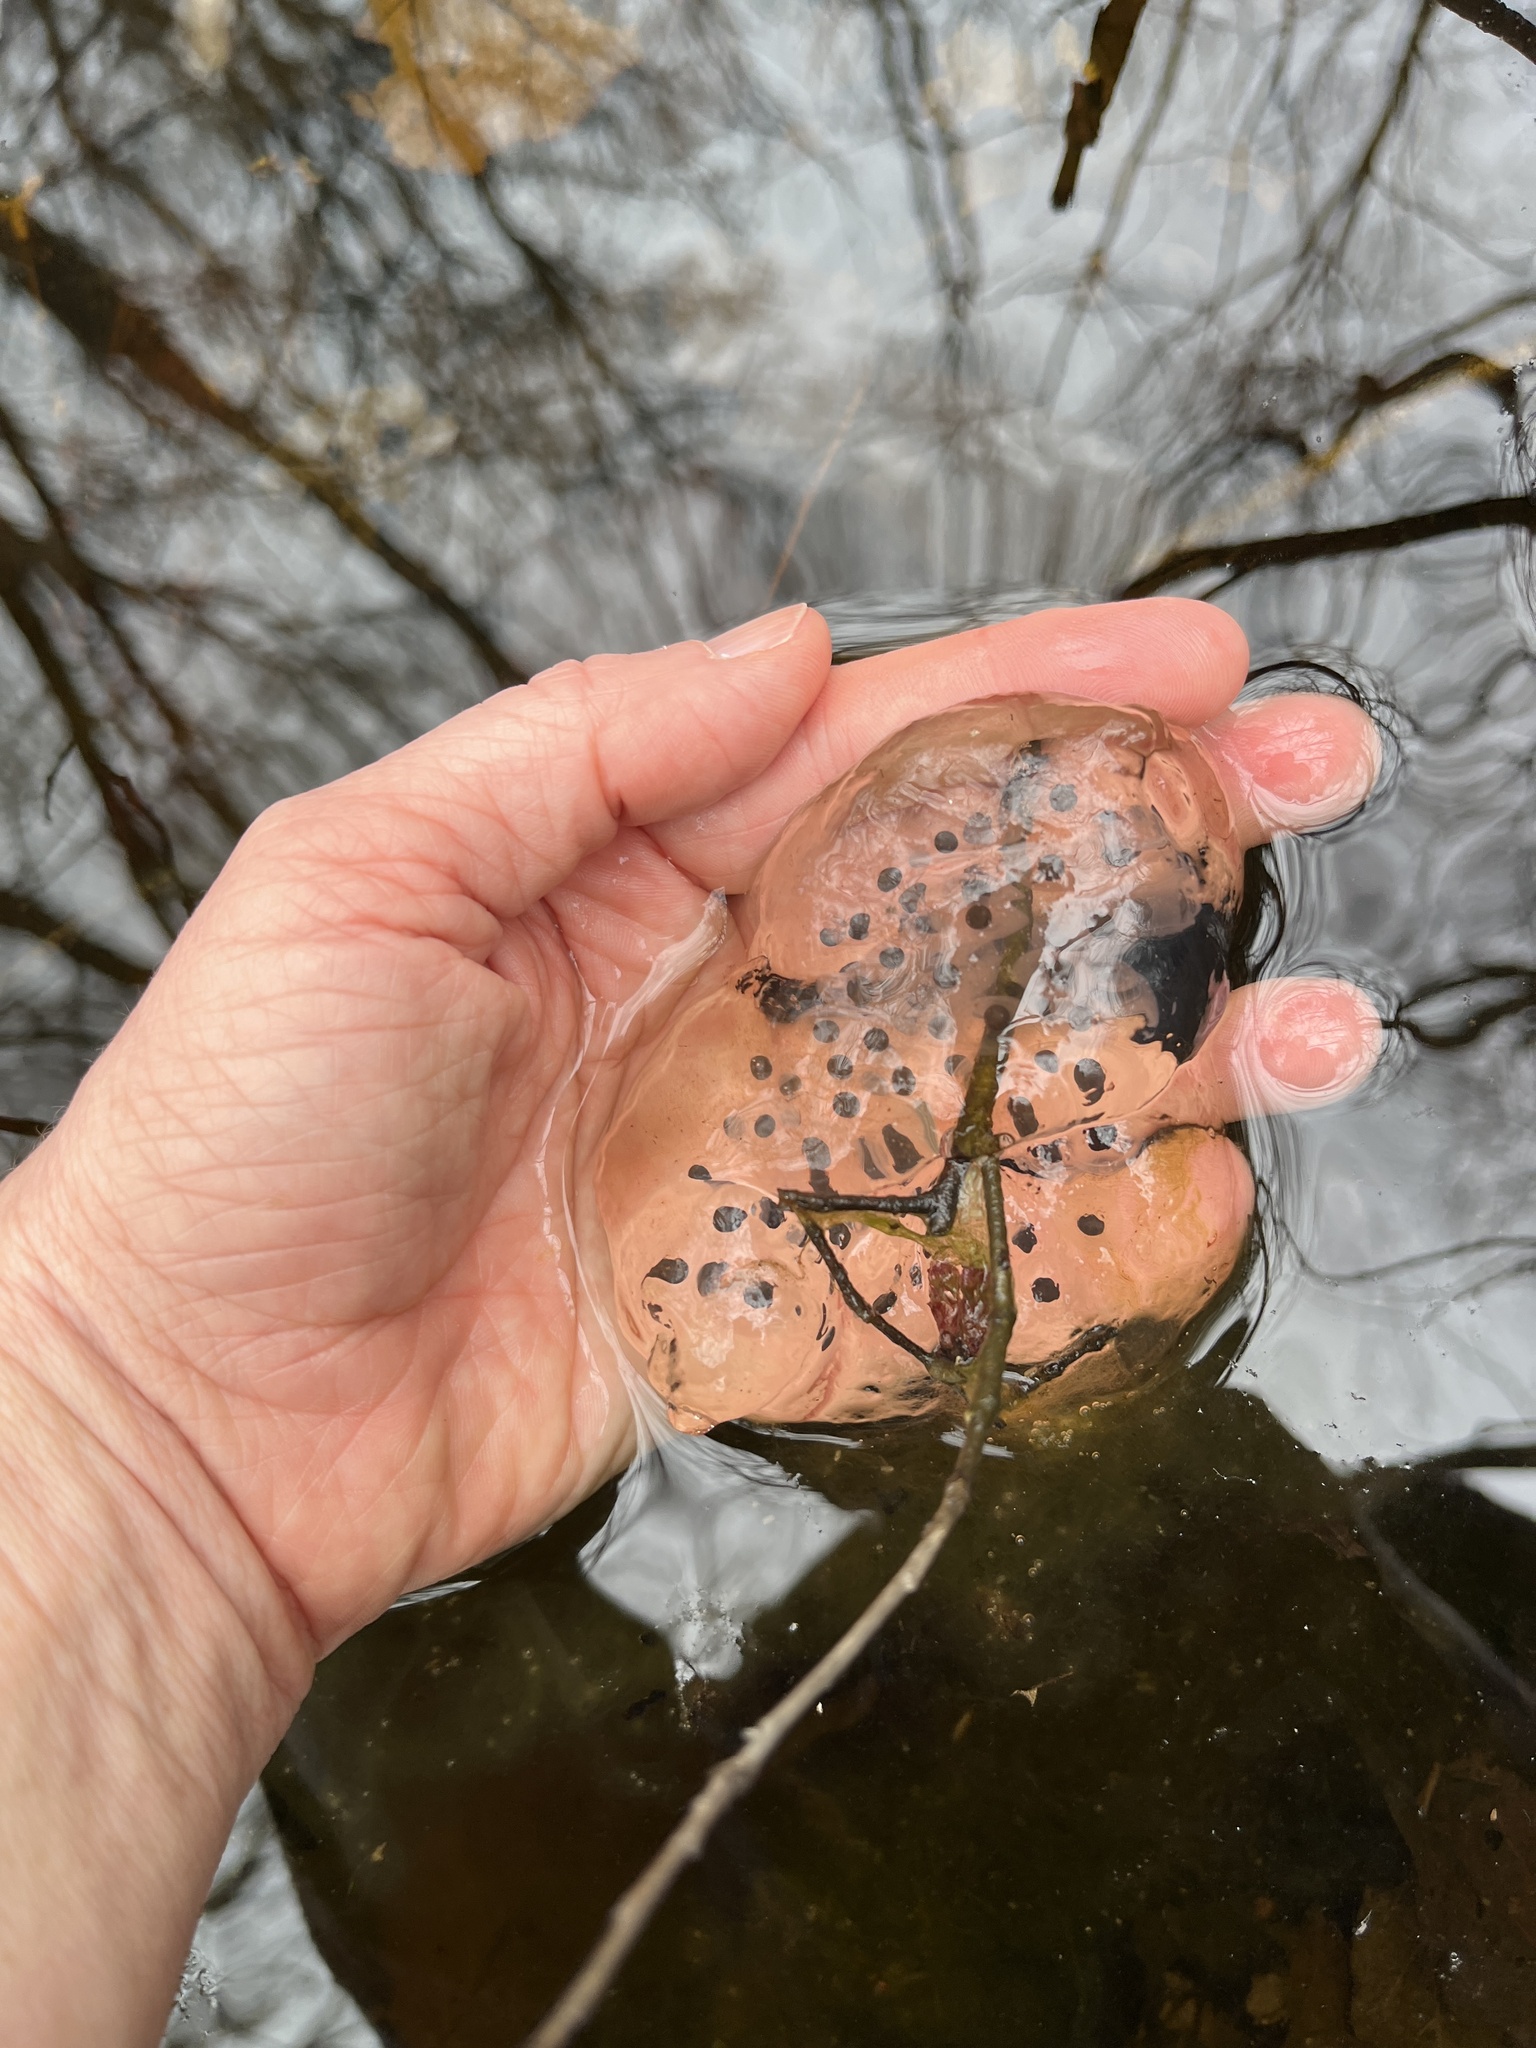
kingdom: Animalia
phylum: Chordata
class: Amphibia
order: Caudata
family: Ambystomatidae
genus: Ambystoma
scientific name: Ambystoma maculatum
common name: Spotted salamander
